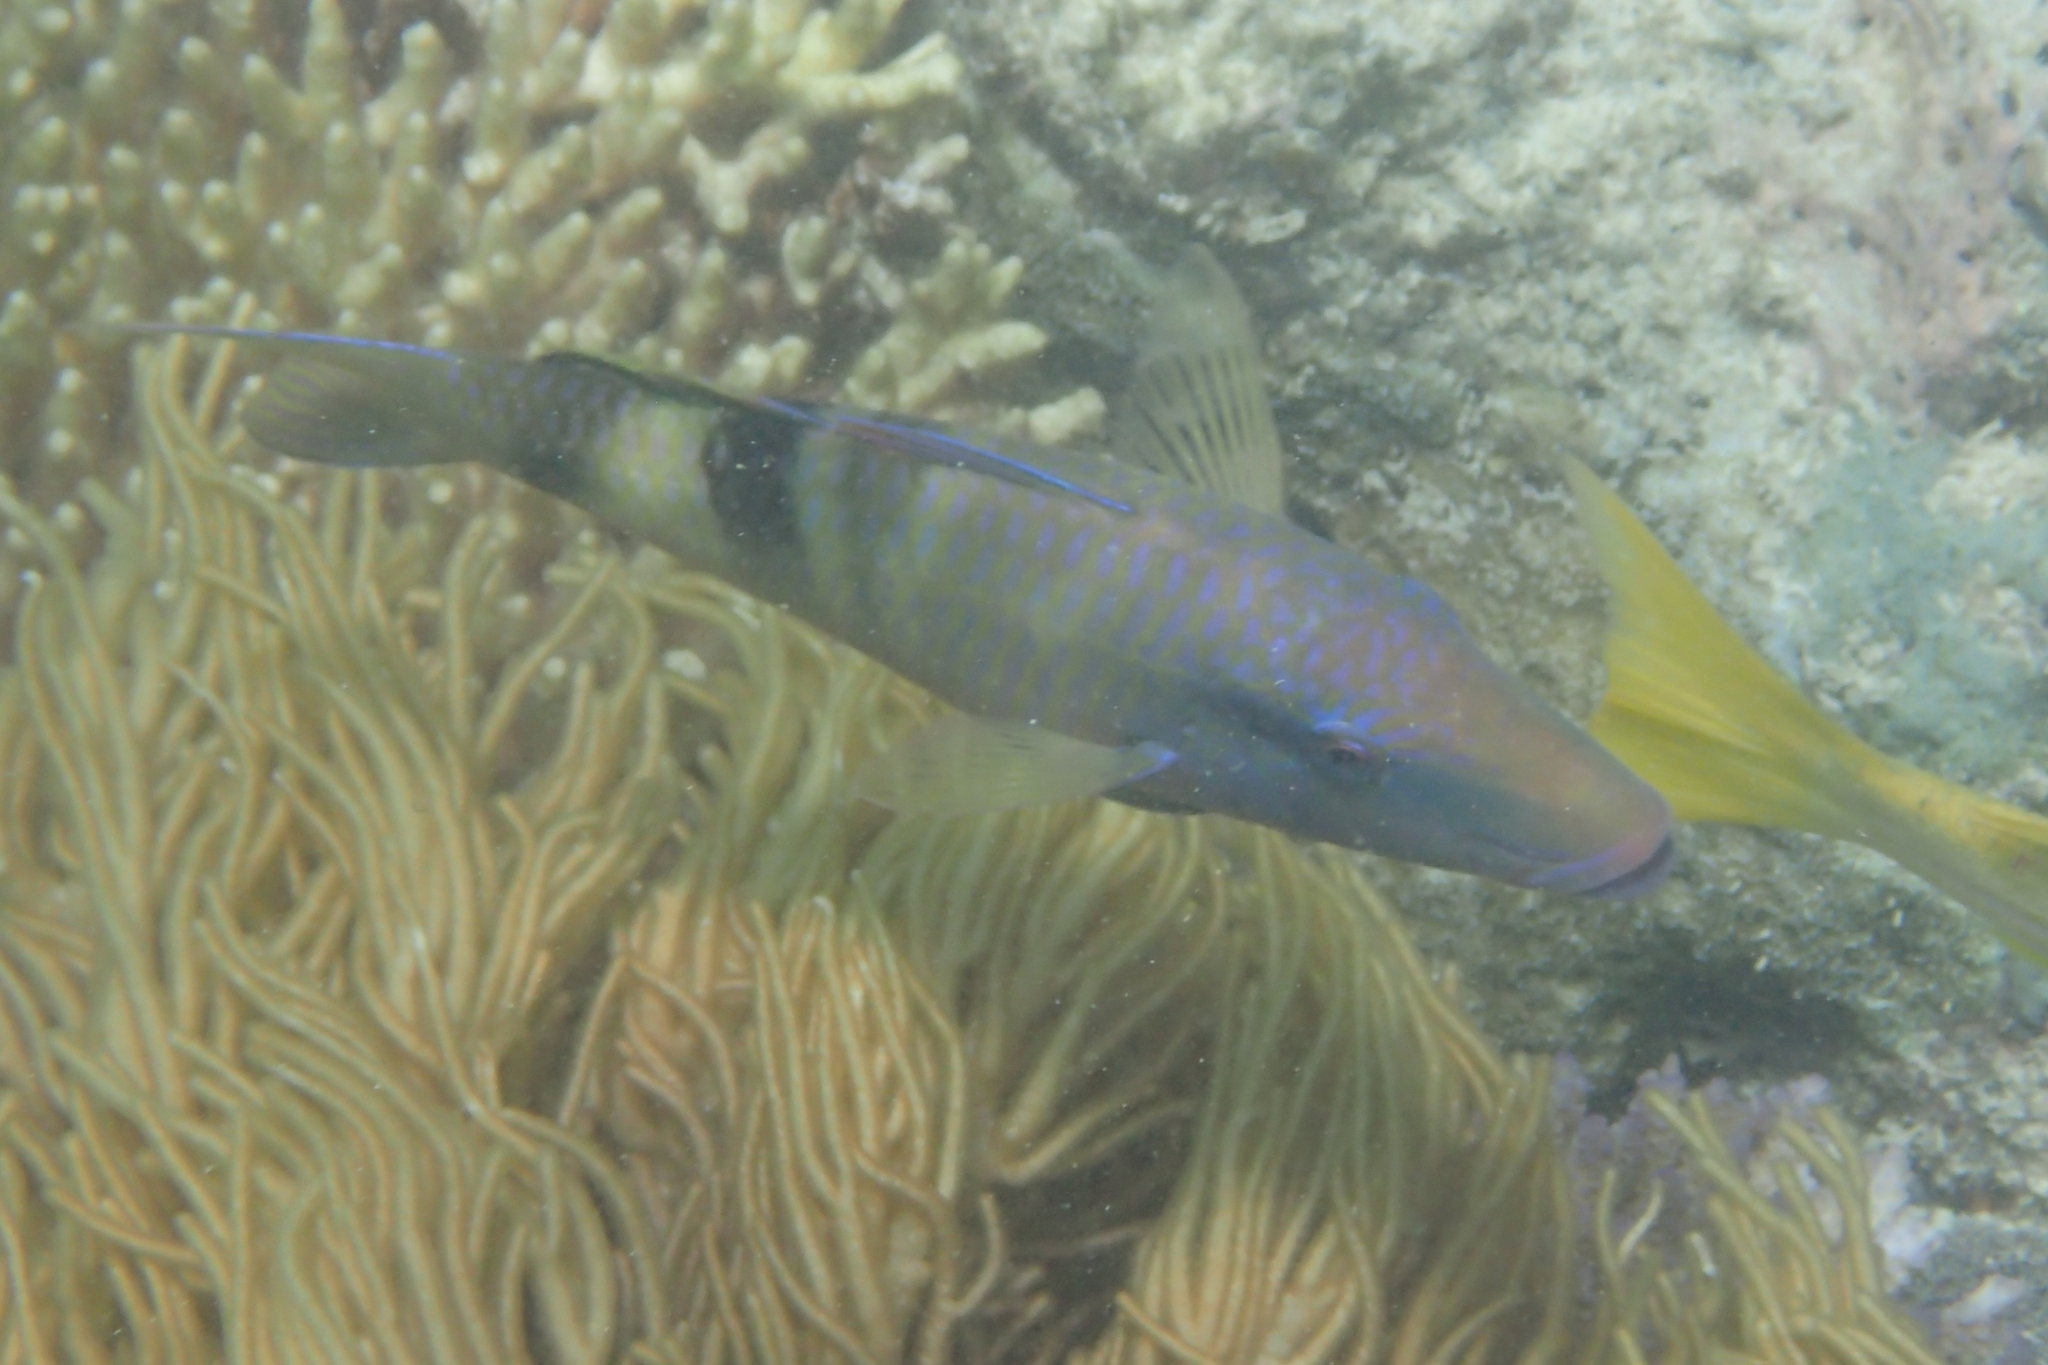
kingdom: Animalia
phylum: Chordata
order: Perciformes
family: Mullidae
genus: Parupeneus
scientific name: Parupeneus multifasciatus
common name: Manybar goatfish
